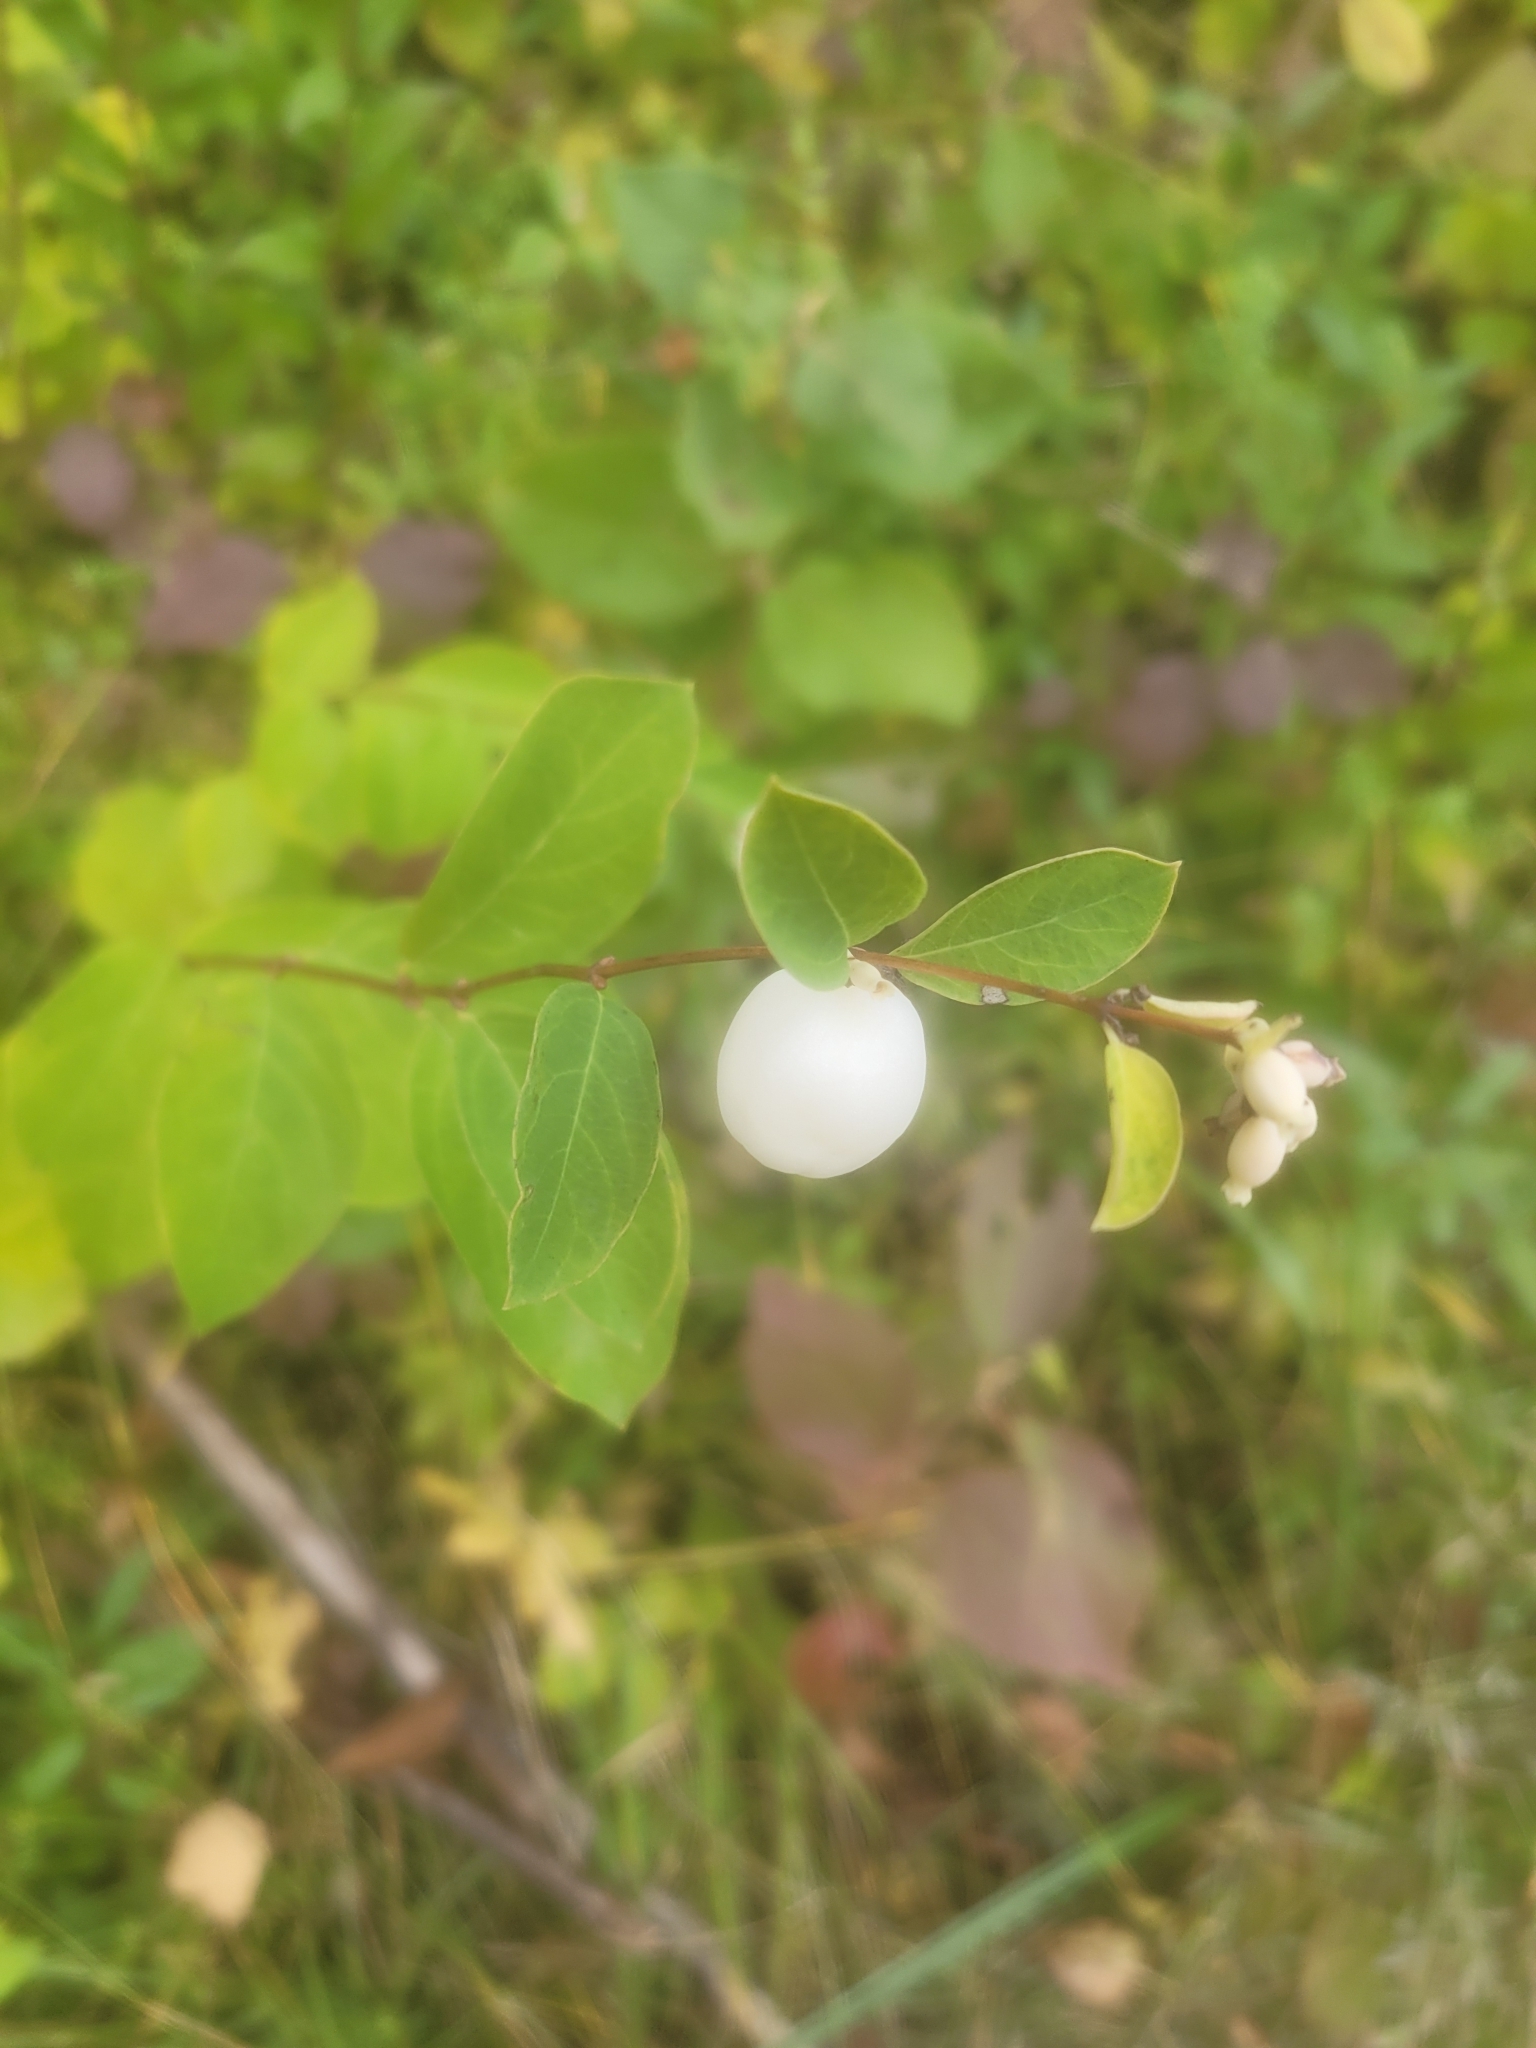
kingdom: Plantae
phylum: Tracheophyta
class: Magnoliopsida
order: Dipsacales
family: Caprifoliaceae
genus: Symphoricarpos
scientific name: Symphoricarpos albus
